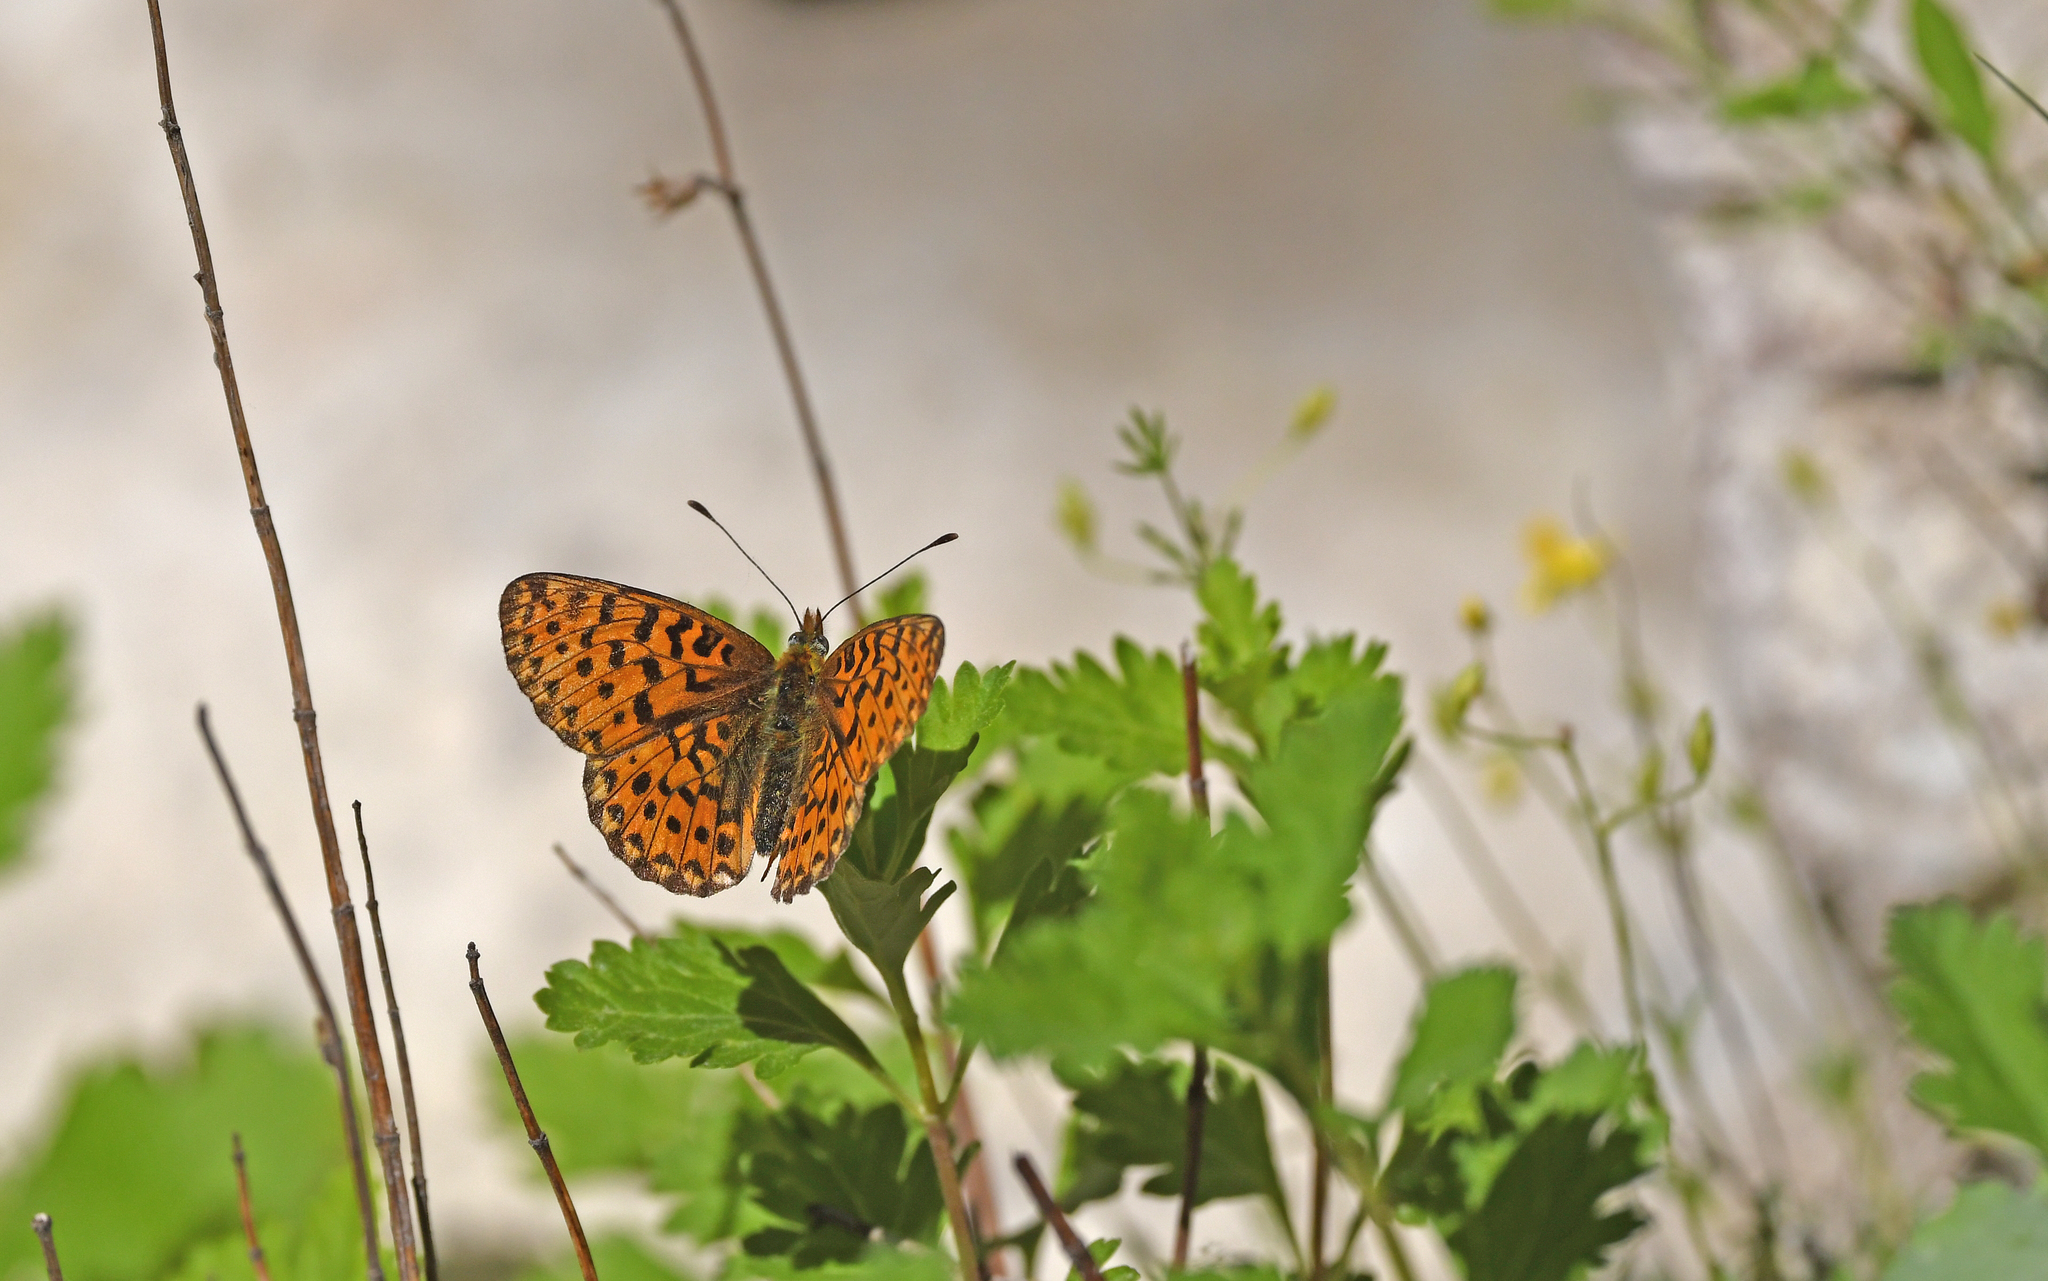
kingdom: Animalia
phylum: Arthropoda
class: Insecta
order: Lepidoptera
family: Nymphalidae
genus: Clossiana
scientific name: Clossiana euphrosyne
